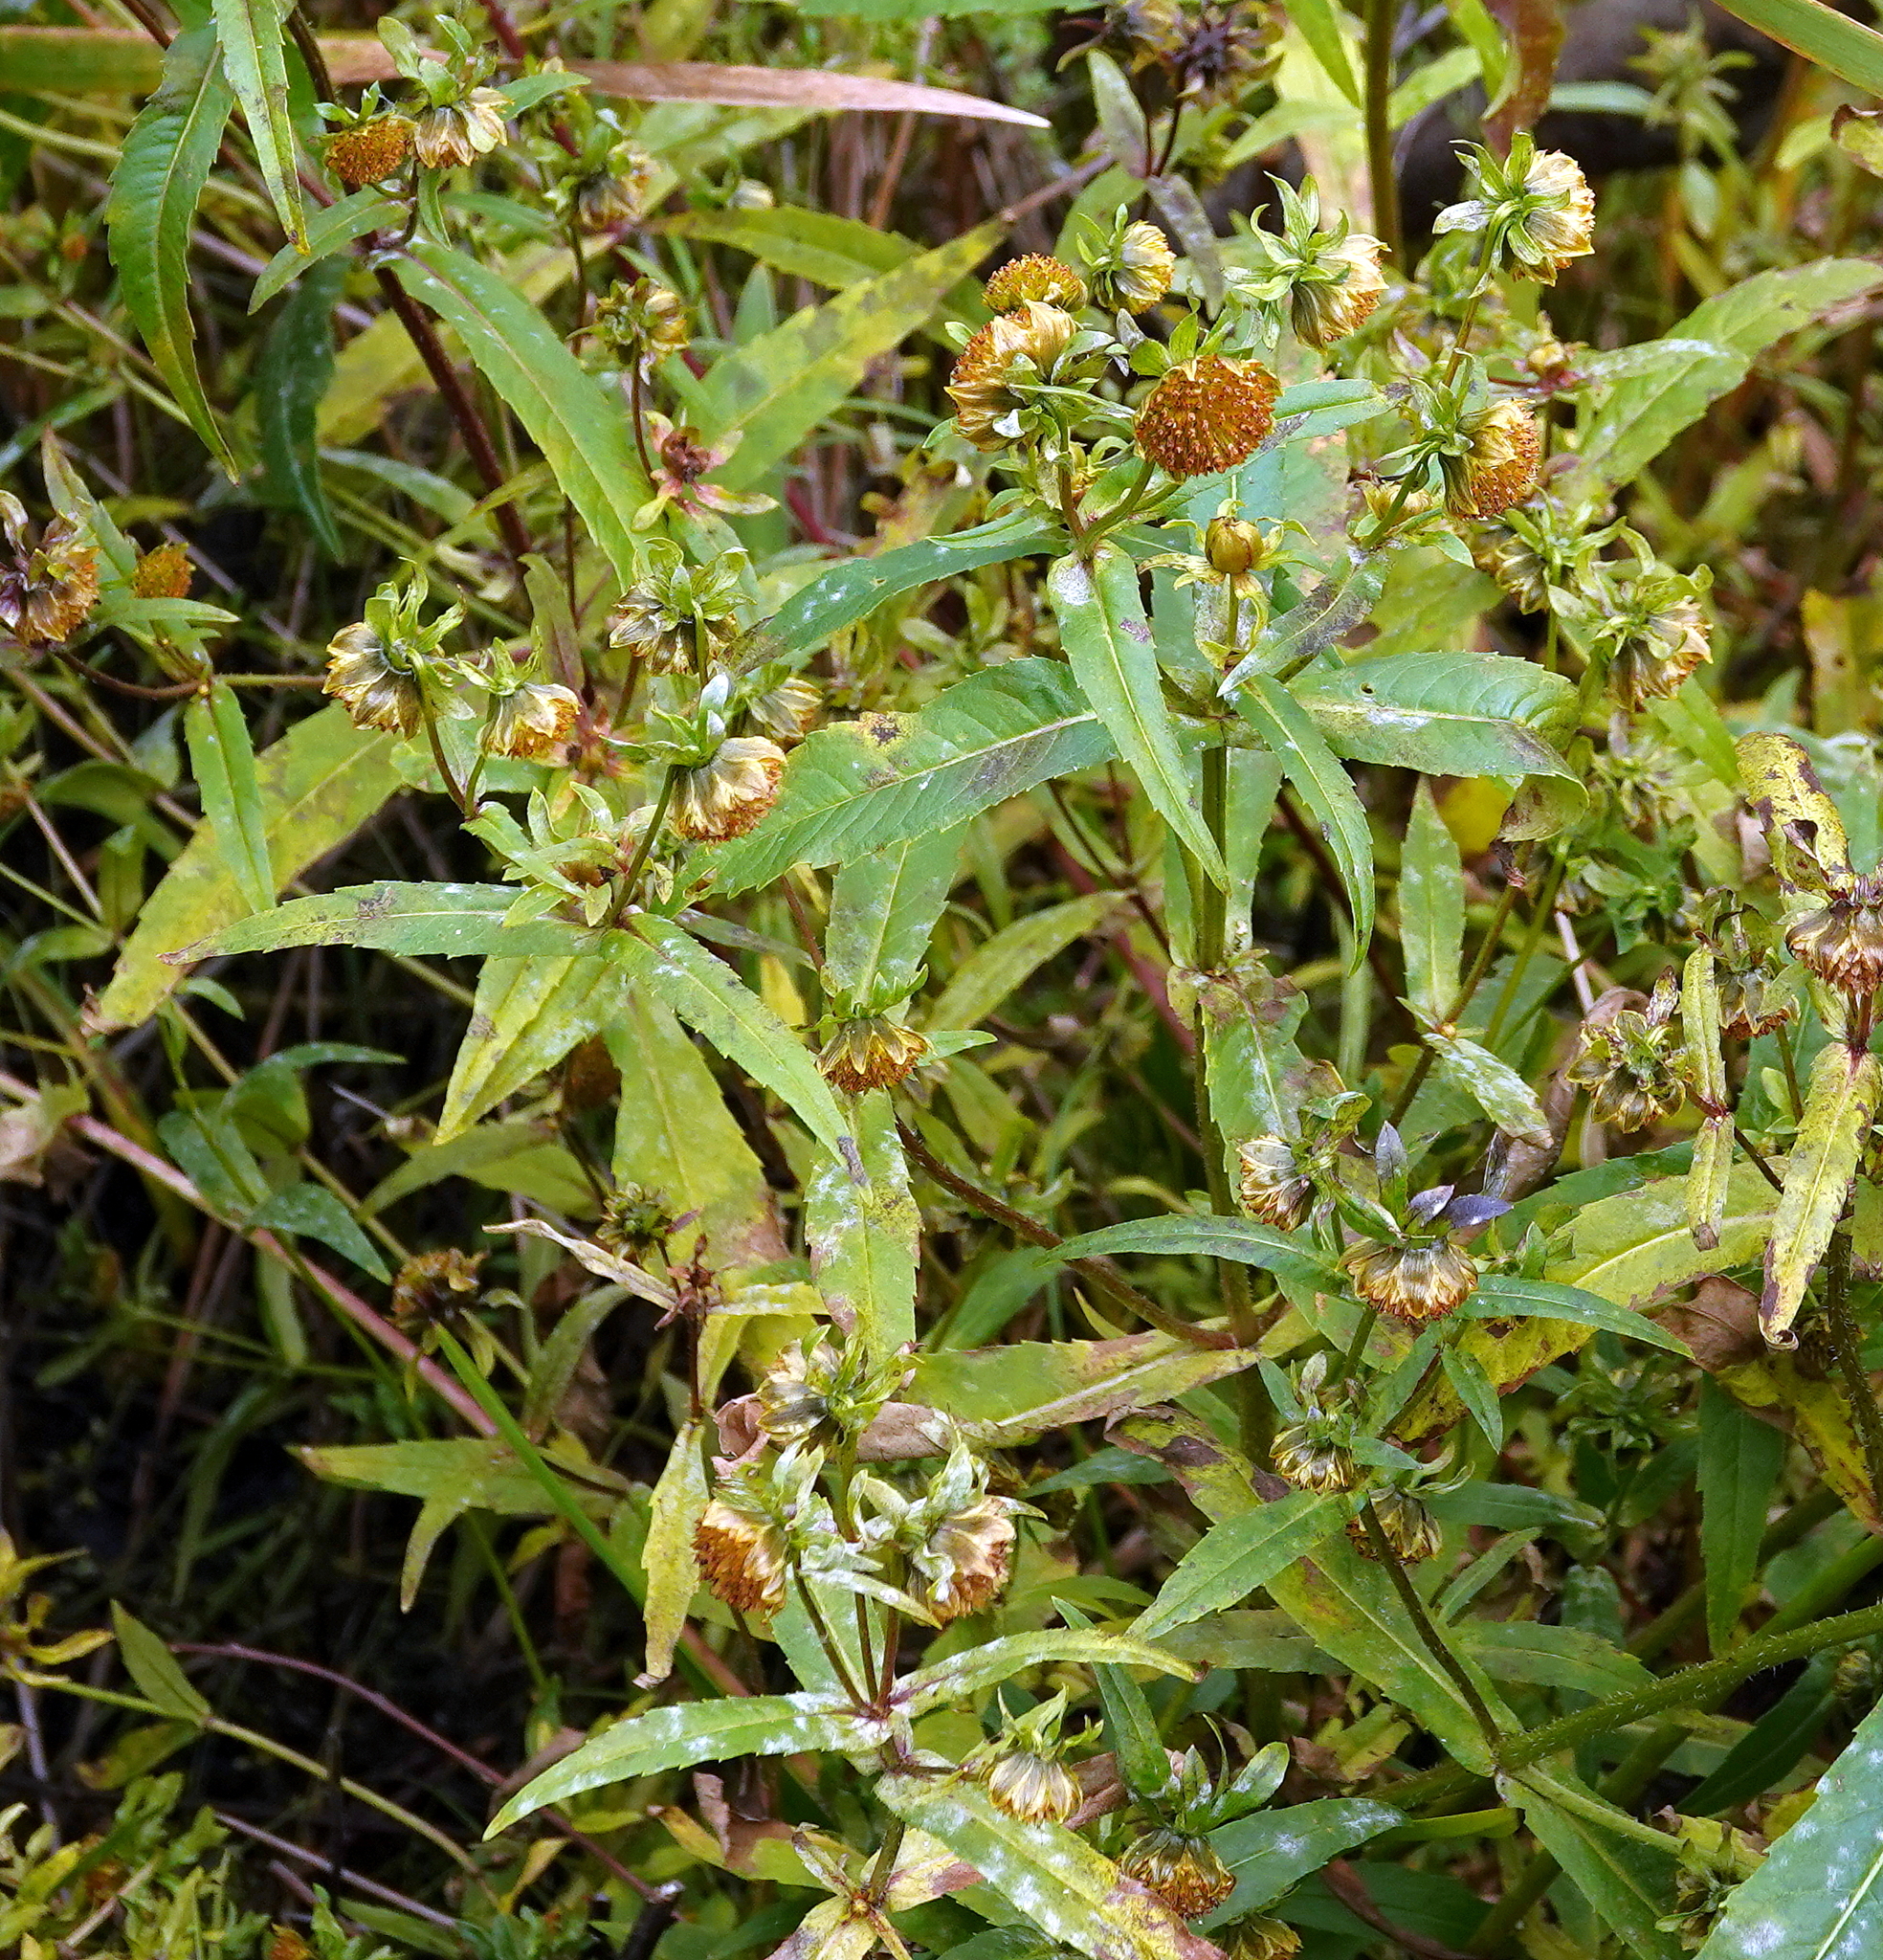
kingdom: Plantae
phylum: Tracheophyta
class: Magnoliopsida
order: Asterales
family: Asteraceae
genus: Bidens
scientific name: Bidens cernua
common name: Nodding bur-marigold
